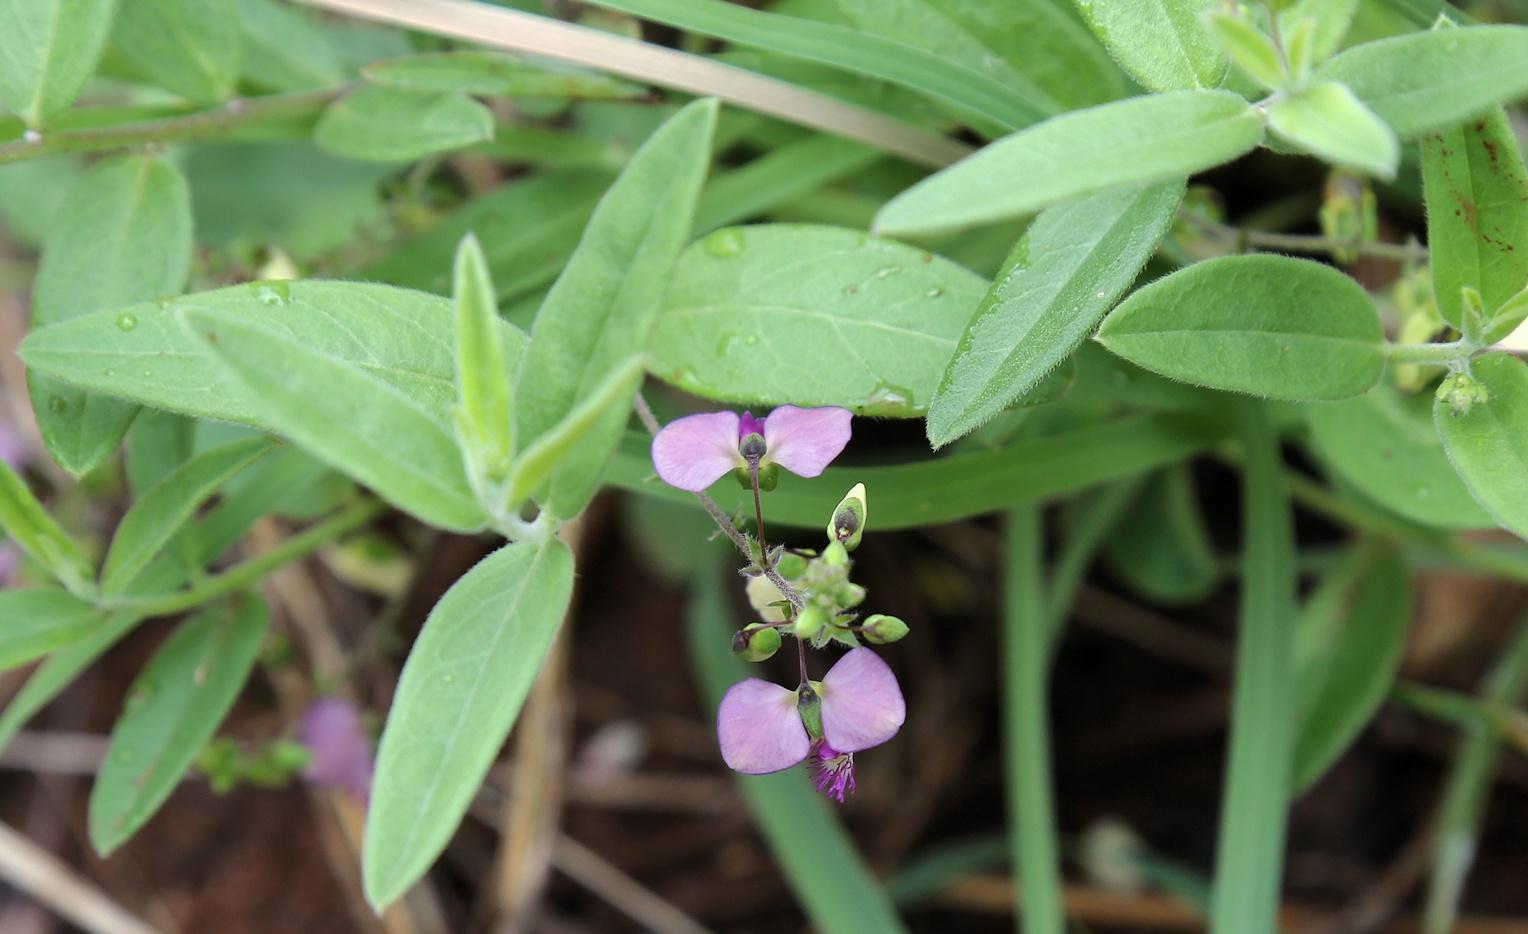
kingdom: Plantae
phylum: Tracheophyta
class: Magnoliopsida
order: Fabales
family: Polygalaceae
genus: Polygala
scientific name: Polygala sphenoptera
